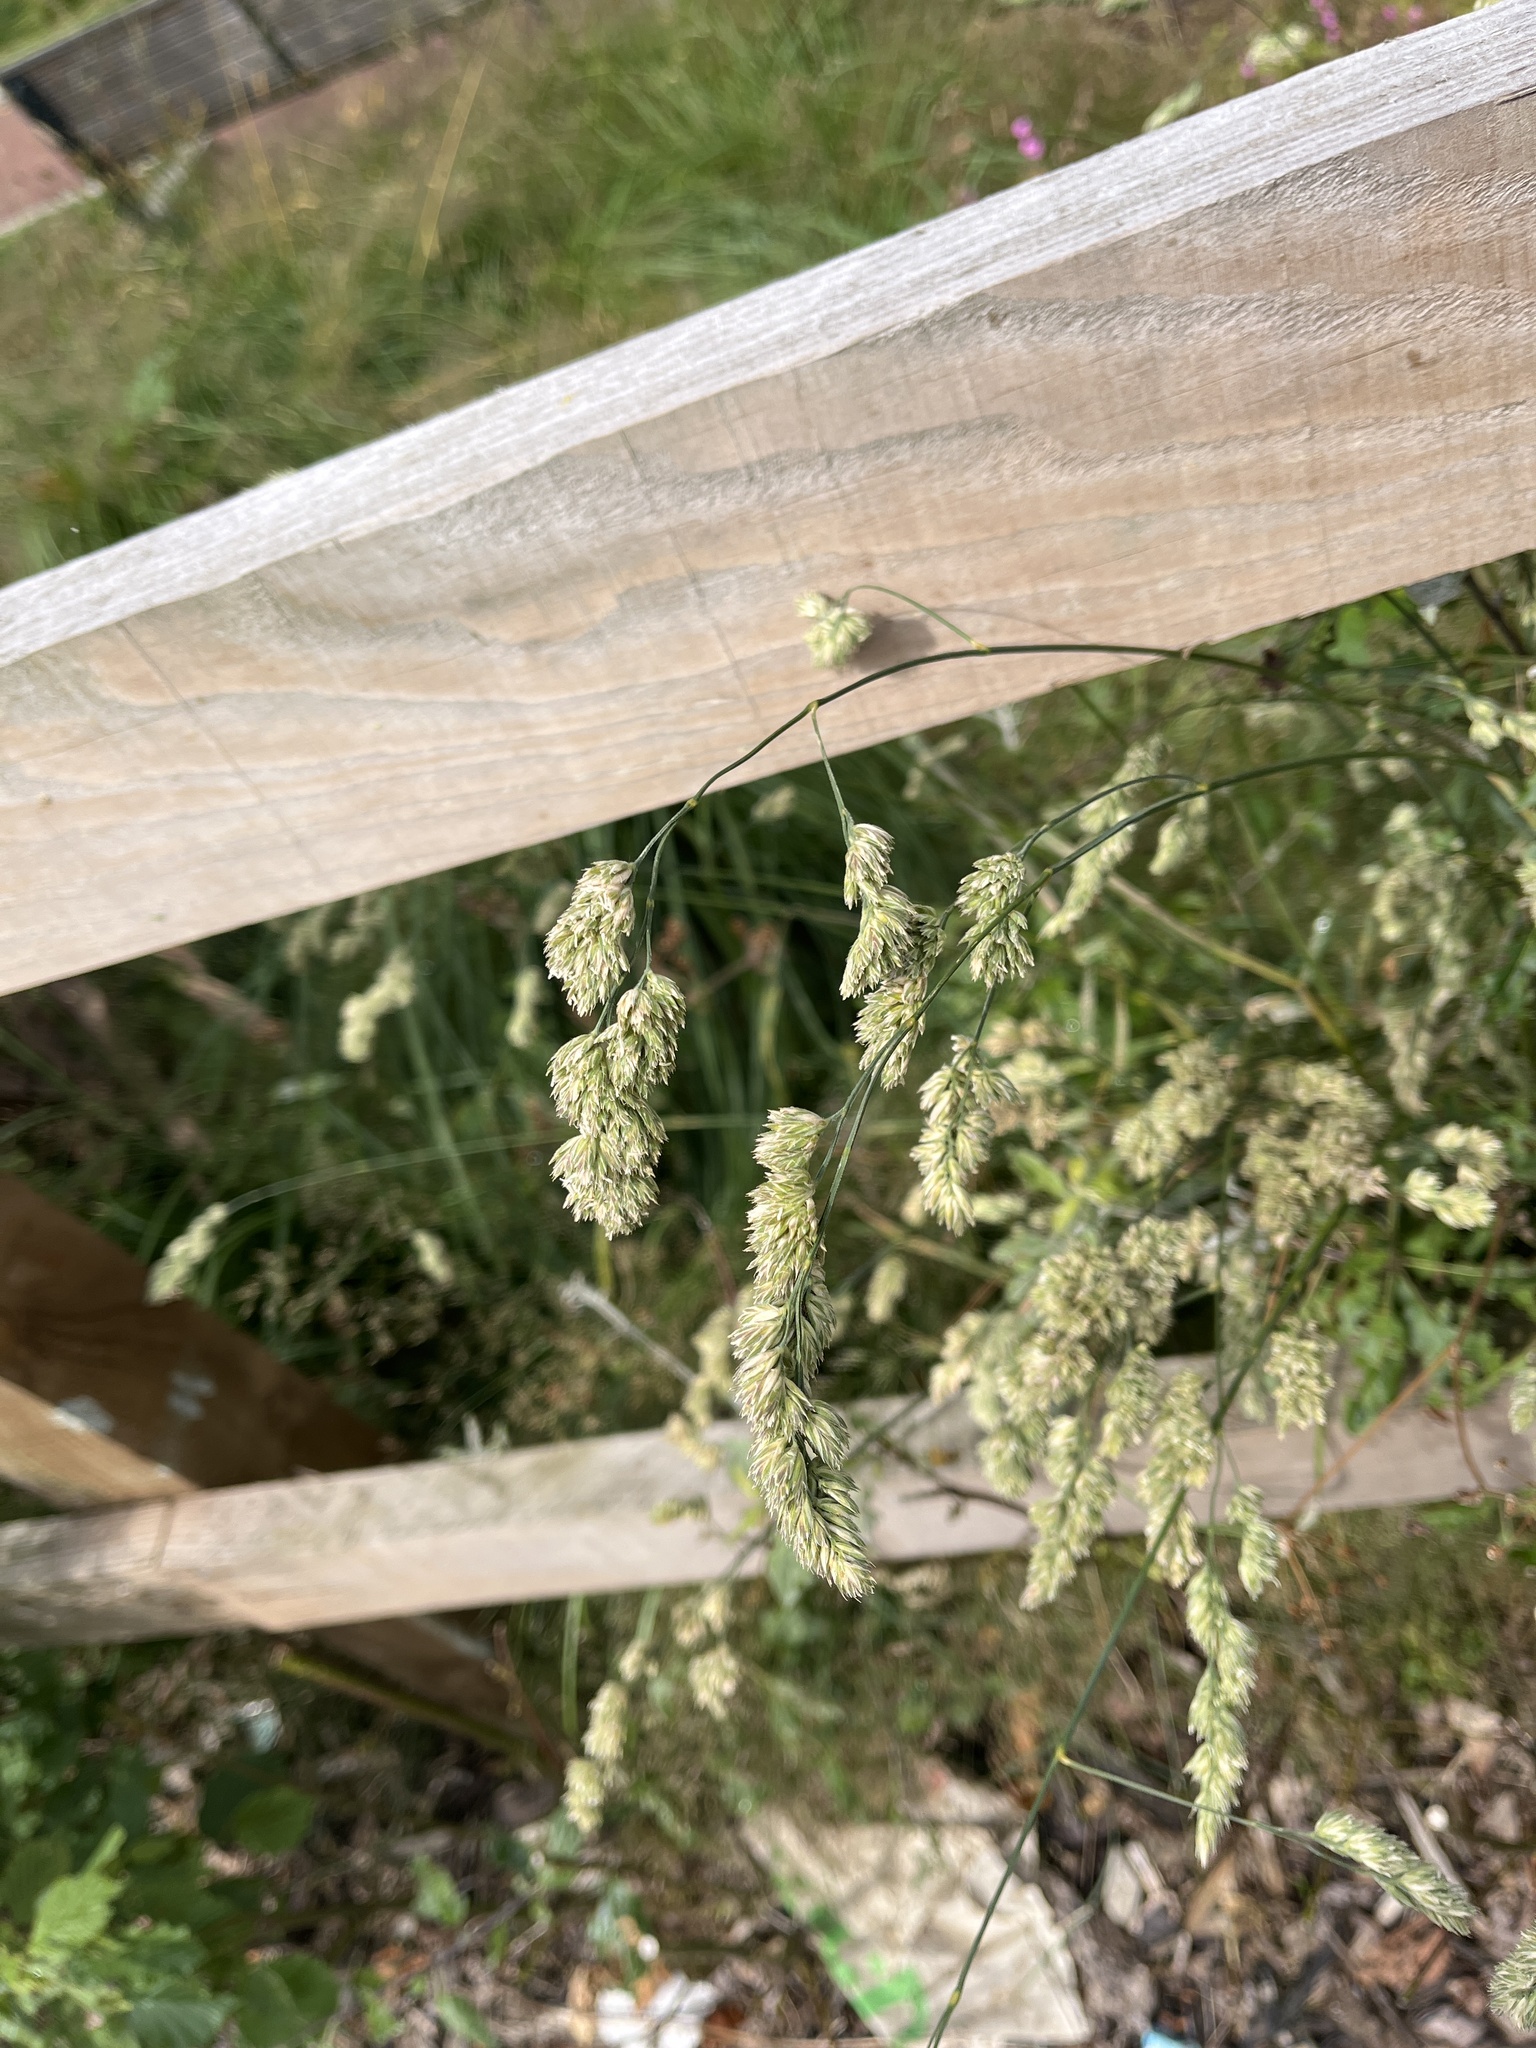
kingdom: Plantae
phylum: Tracheophyta
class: Liliopsida
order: Poales
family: Poaceae
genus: Dactylis
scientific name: Dactylis glomerata
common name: Orchardgrass
